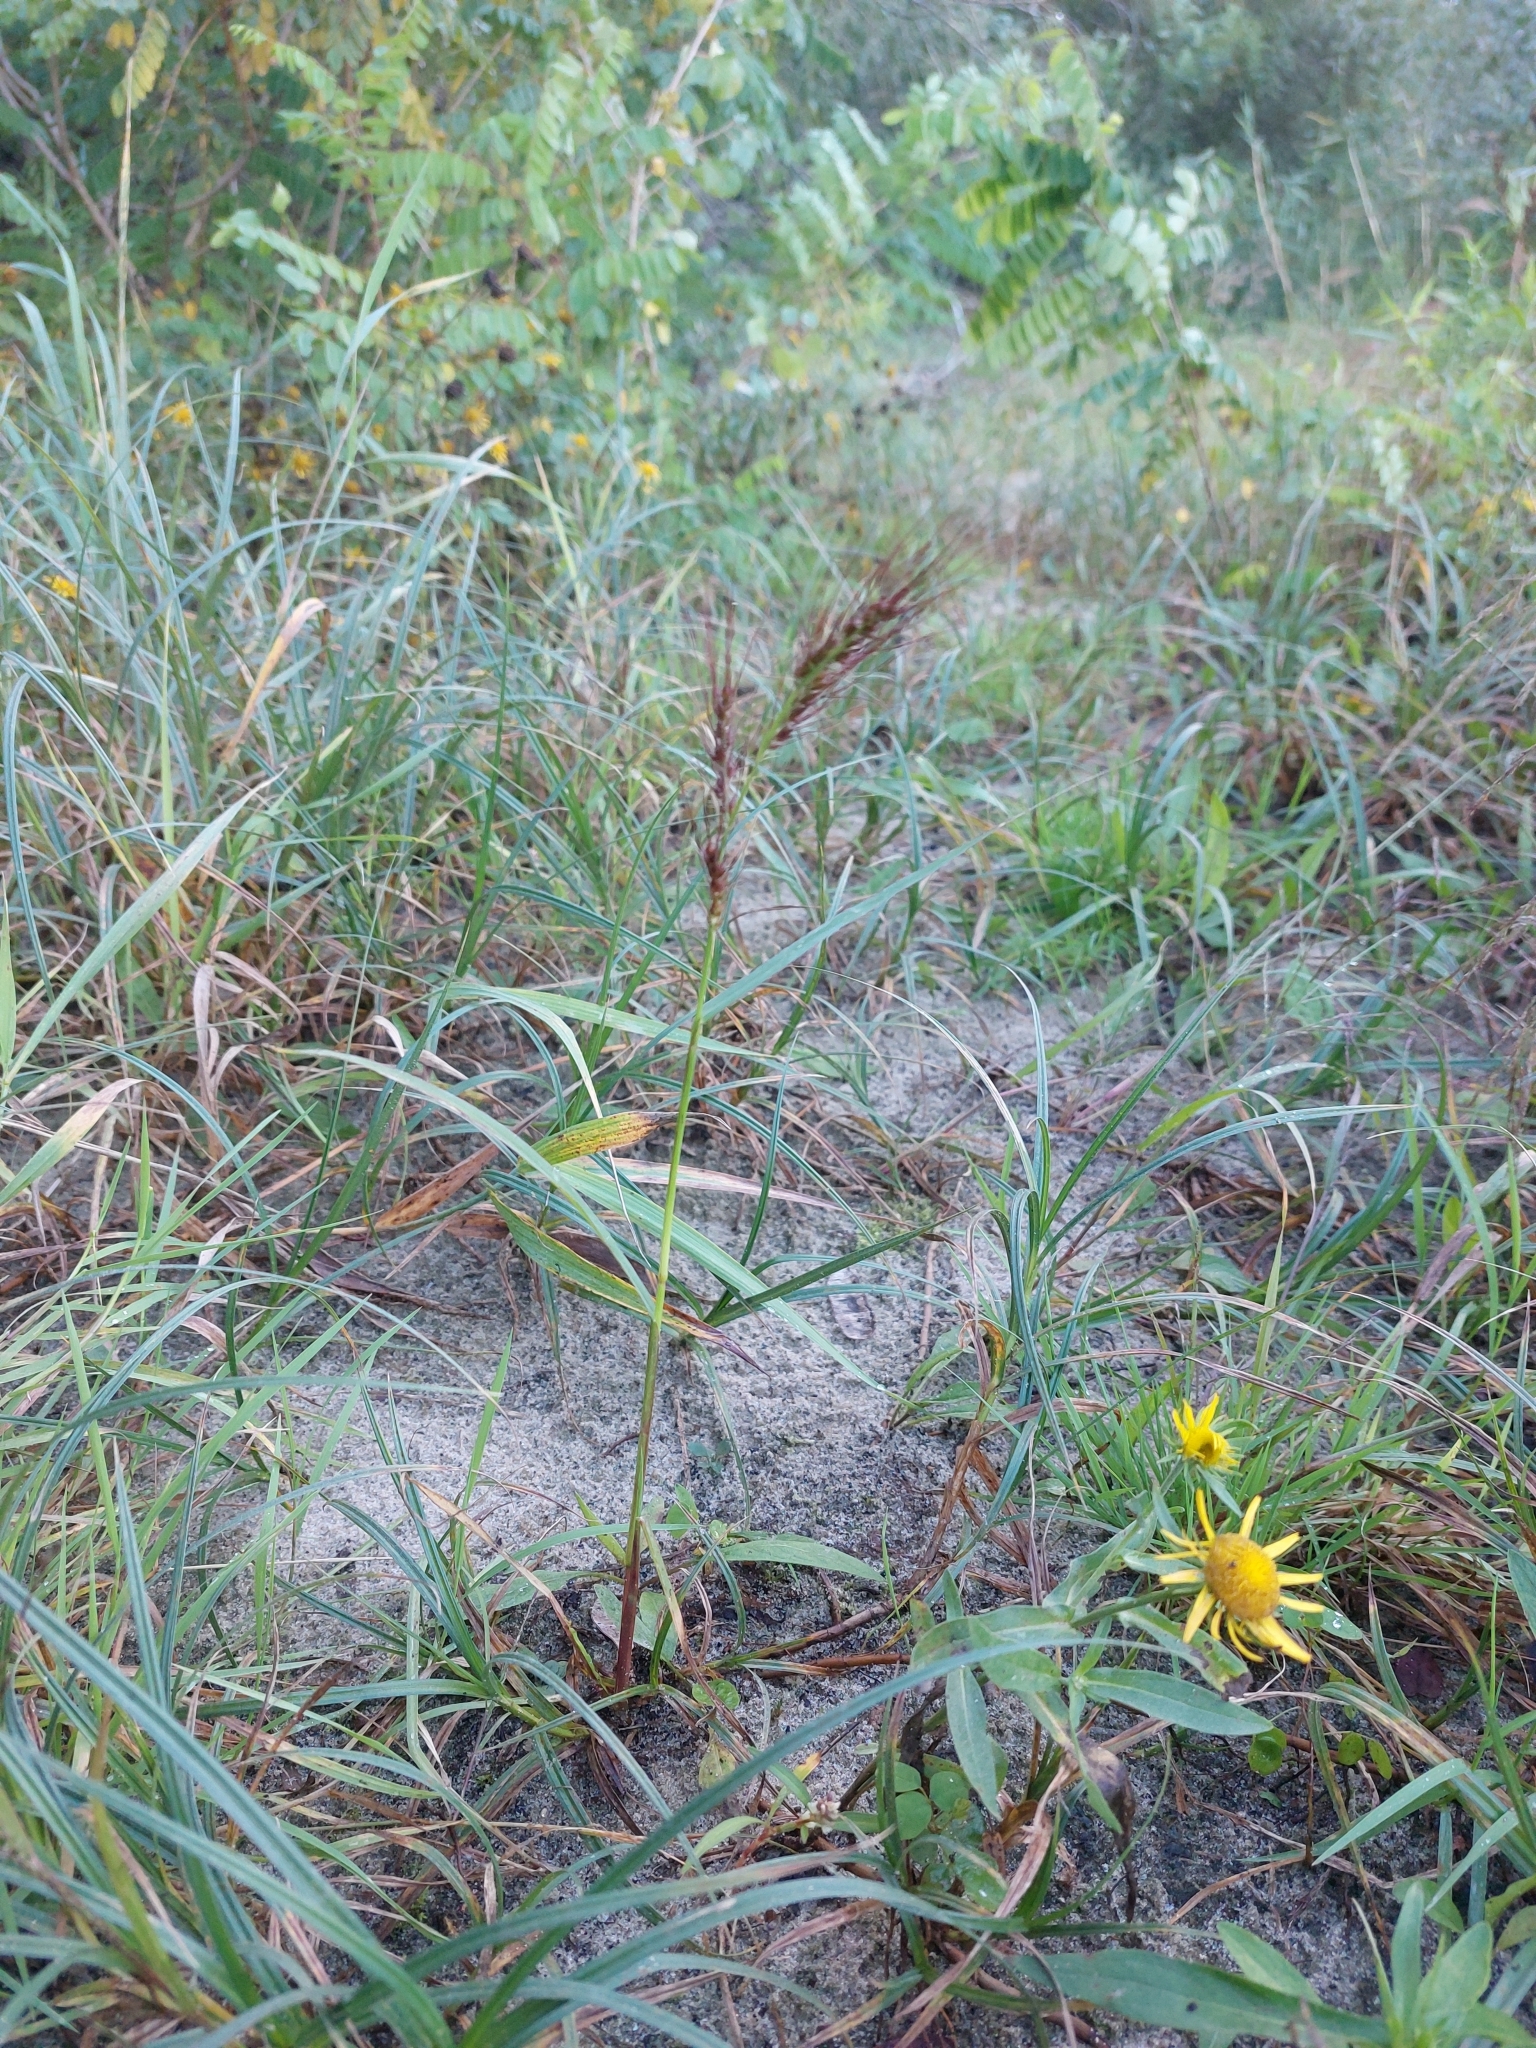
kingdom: Plantae
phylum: Tracheophyta
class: Liliopsida
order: Poales
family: Poaceae
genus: Echinochloa
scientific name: Echinochloa crus-galli
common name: Cockspur
